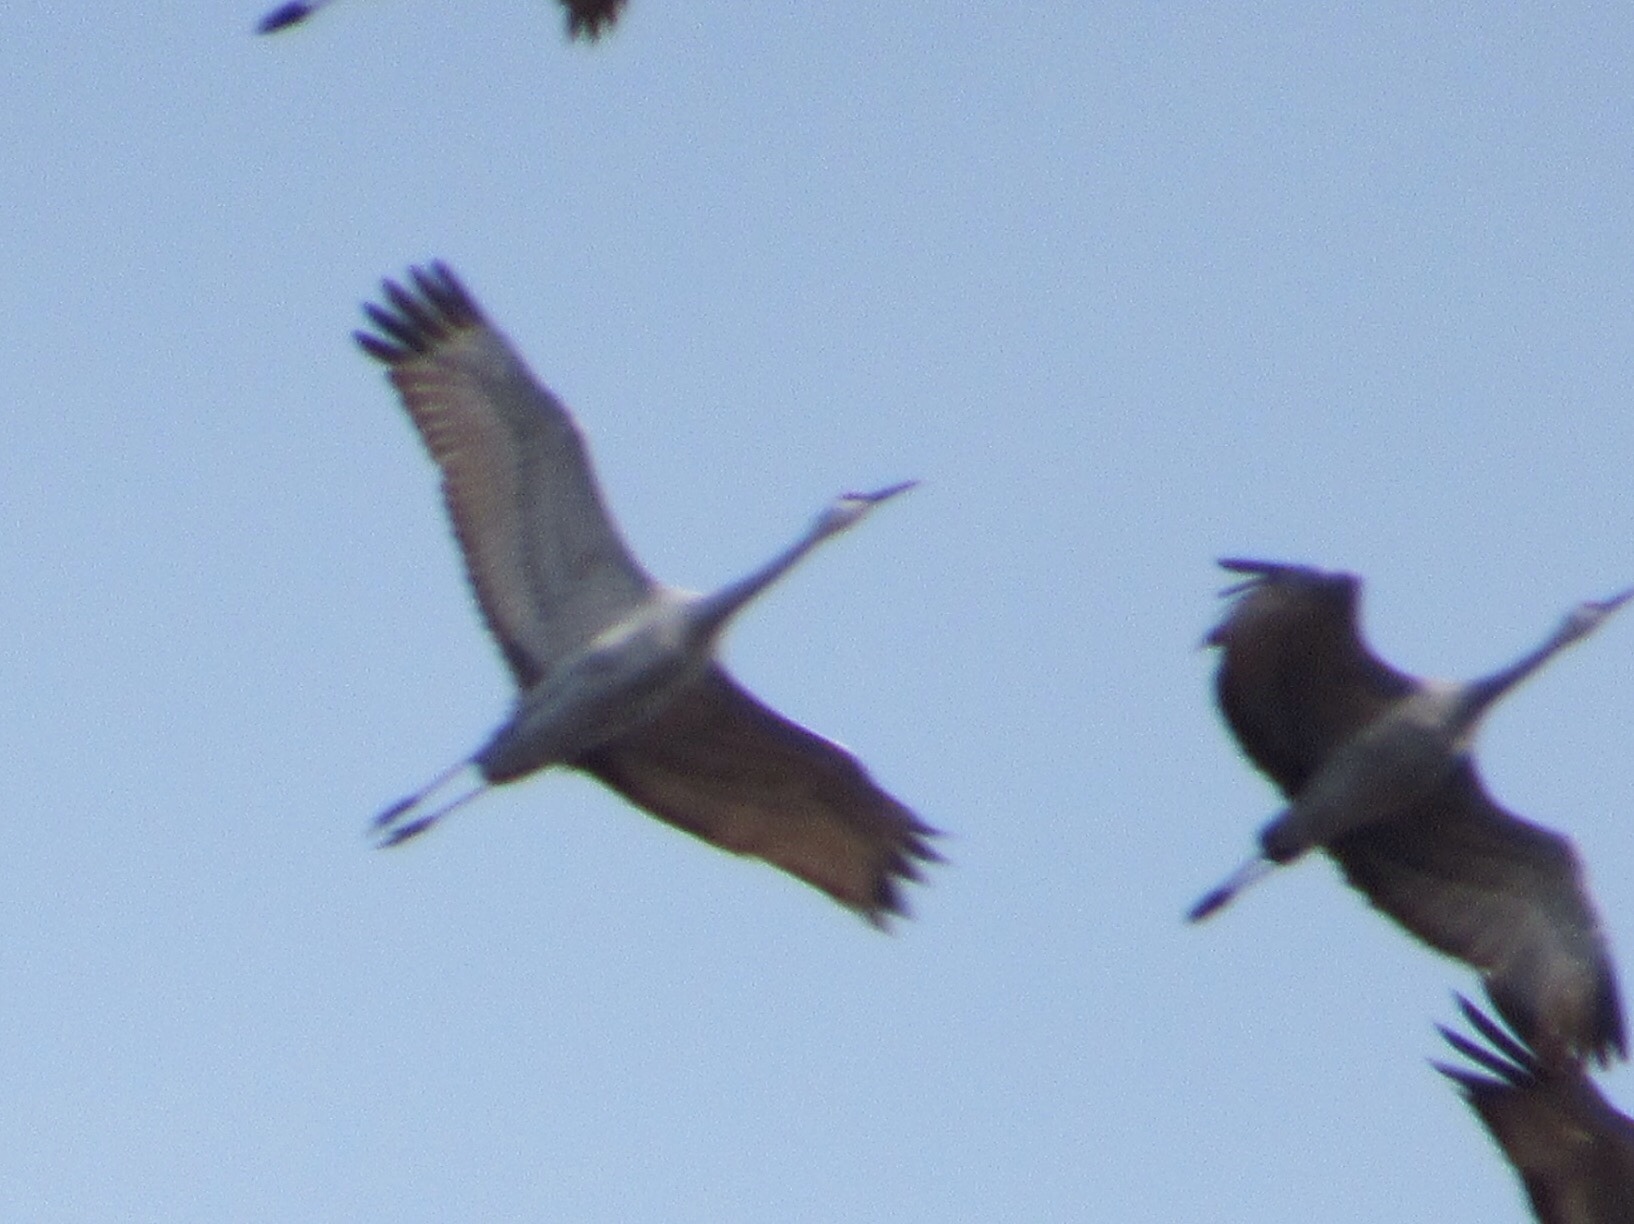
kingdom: Animalia
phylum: Chordata
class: Aves
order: Gruiformes
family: Gruidae
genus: Grus
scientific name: Grus canadensis
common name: Sandhill crane
